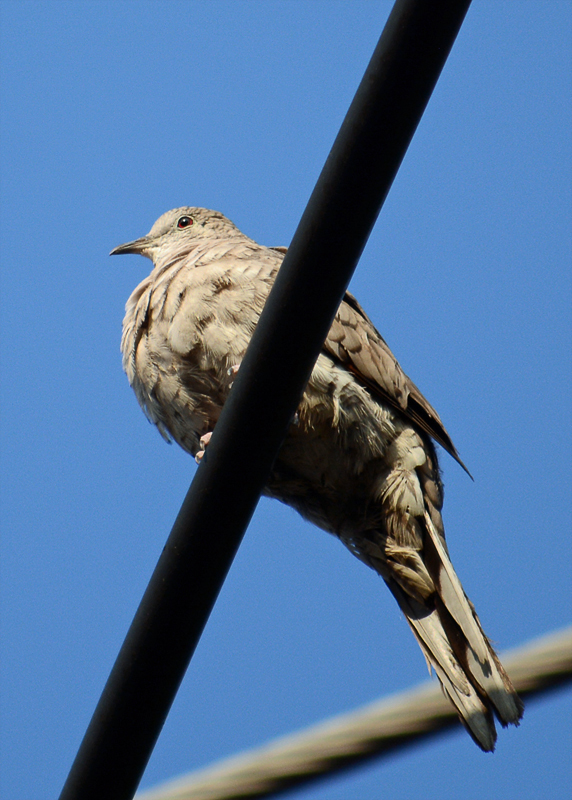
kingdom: Animalia
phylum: Chordata
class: Aves
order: Columbiformes
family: Columbidae
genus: Columbina
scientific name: Columbina inca
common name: Inca dove
